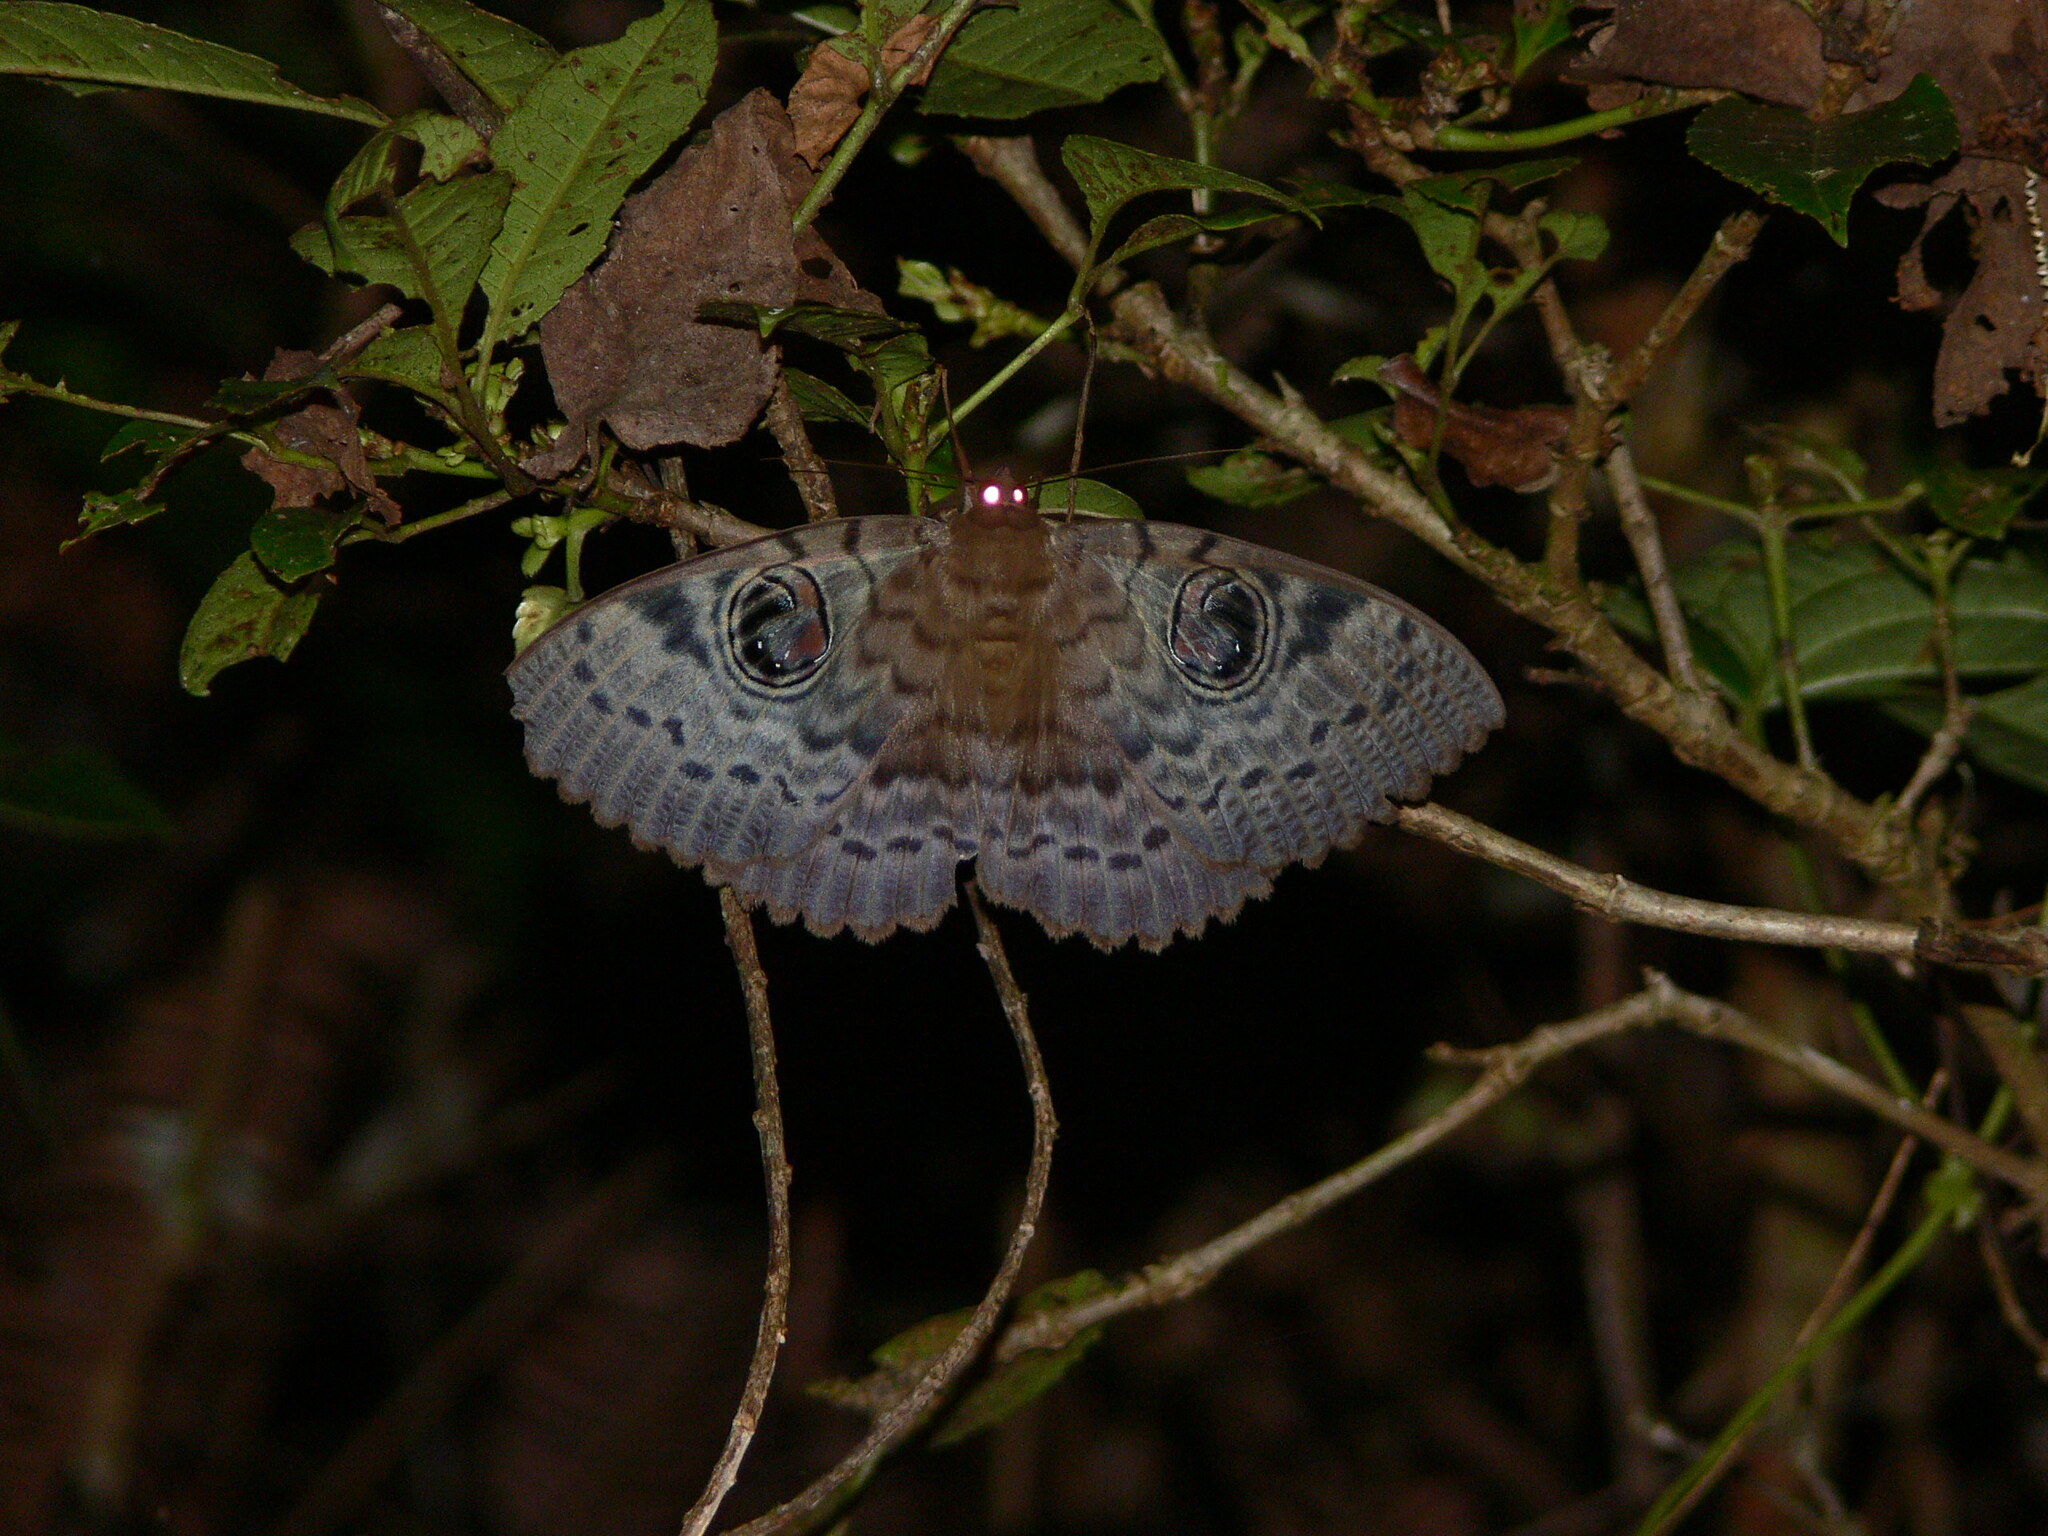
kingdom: Animalia
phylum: Arthropoda
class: Insecta
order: Lepidoptera
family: Erebidae
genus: Erebus
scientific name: Erebus walkeri
